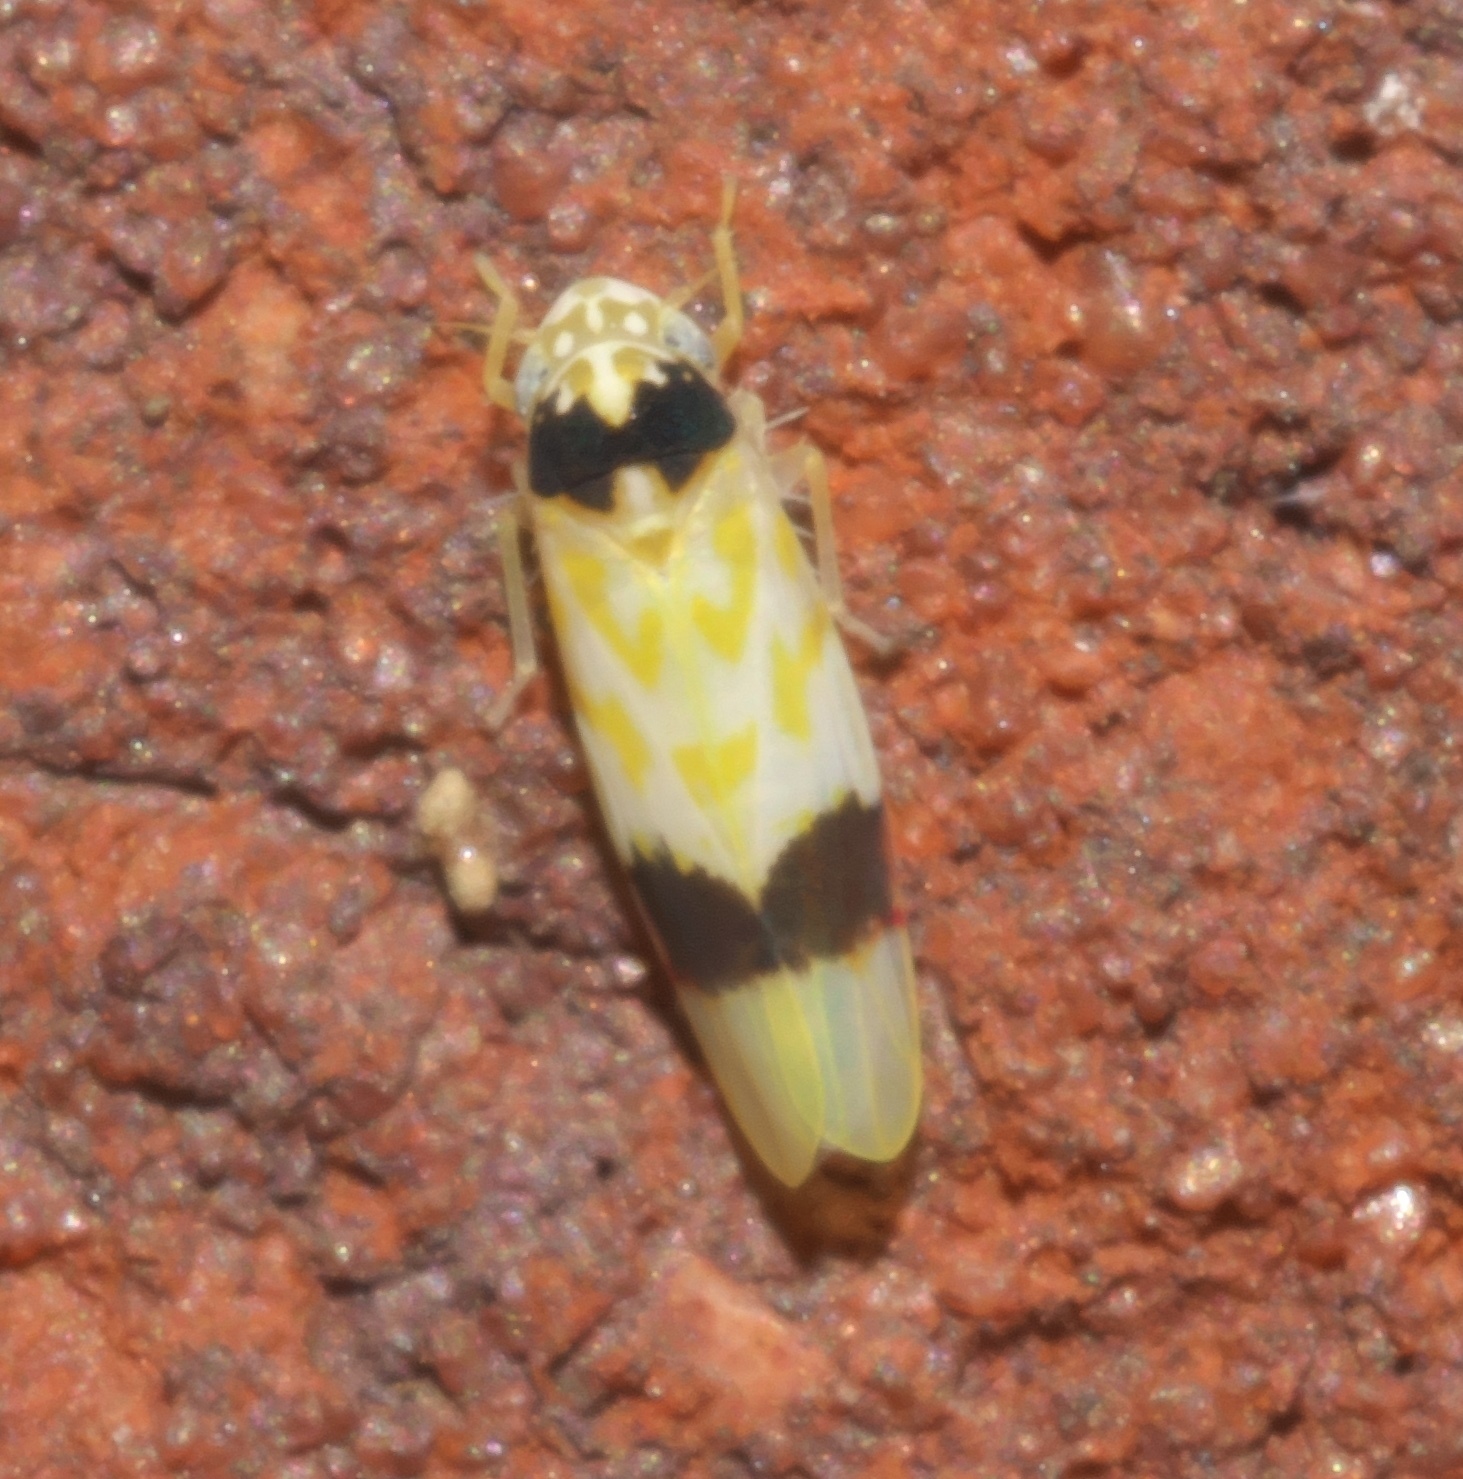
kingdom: Animalia
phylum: Arthropoda
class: Insecta
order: Hemiptera
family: Cicadellidae
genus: Eratoneura
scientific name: Eratoneura morgani
